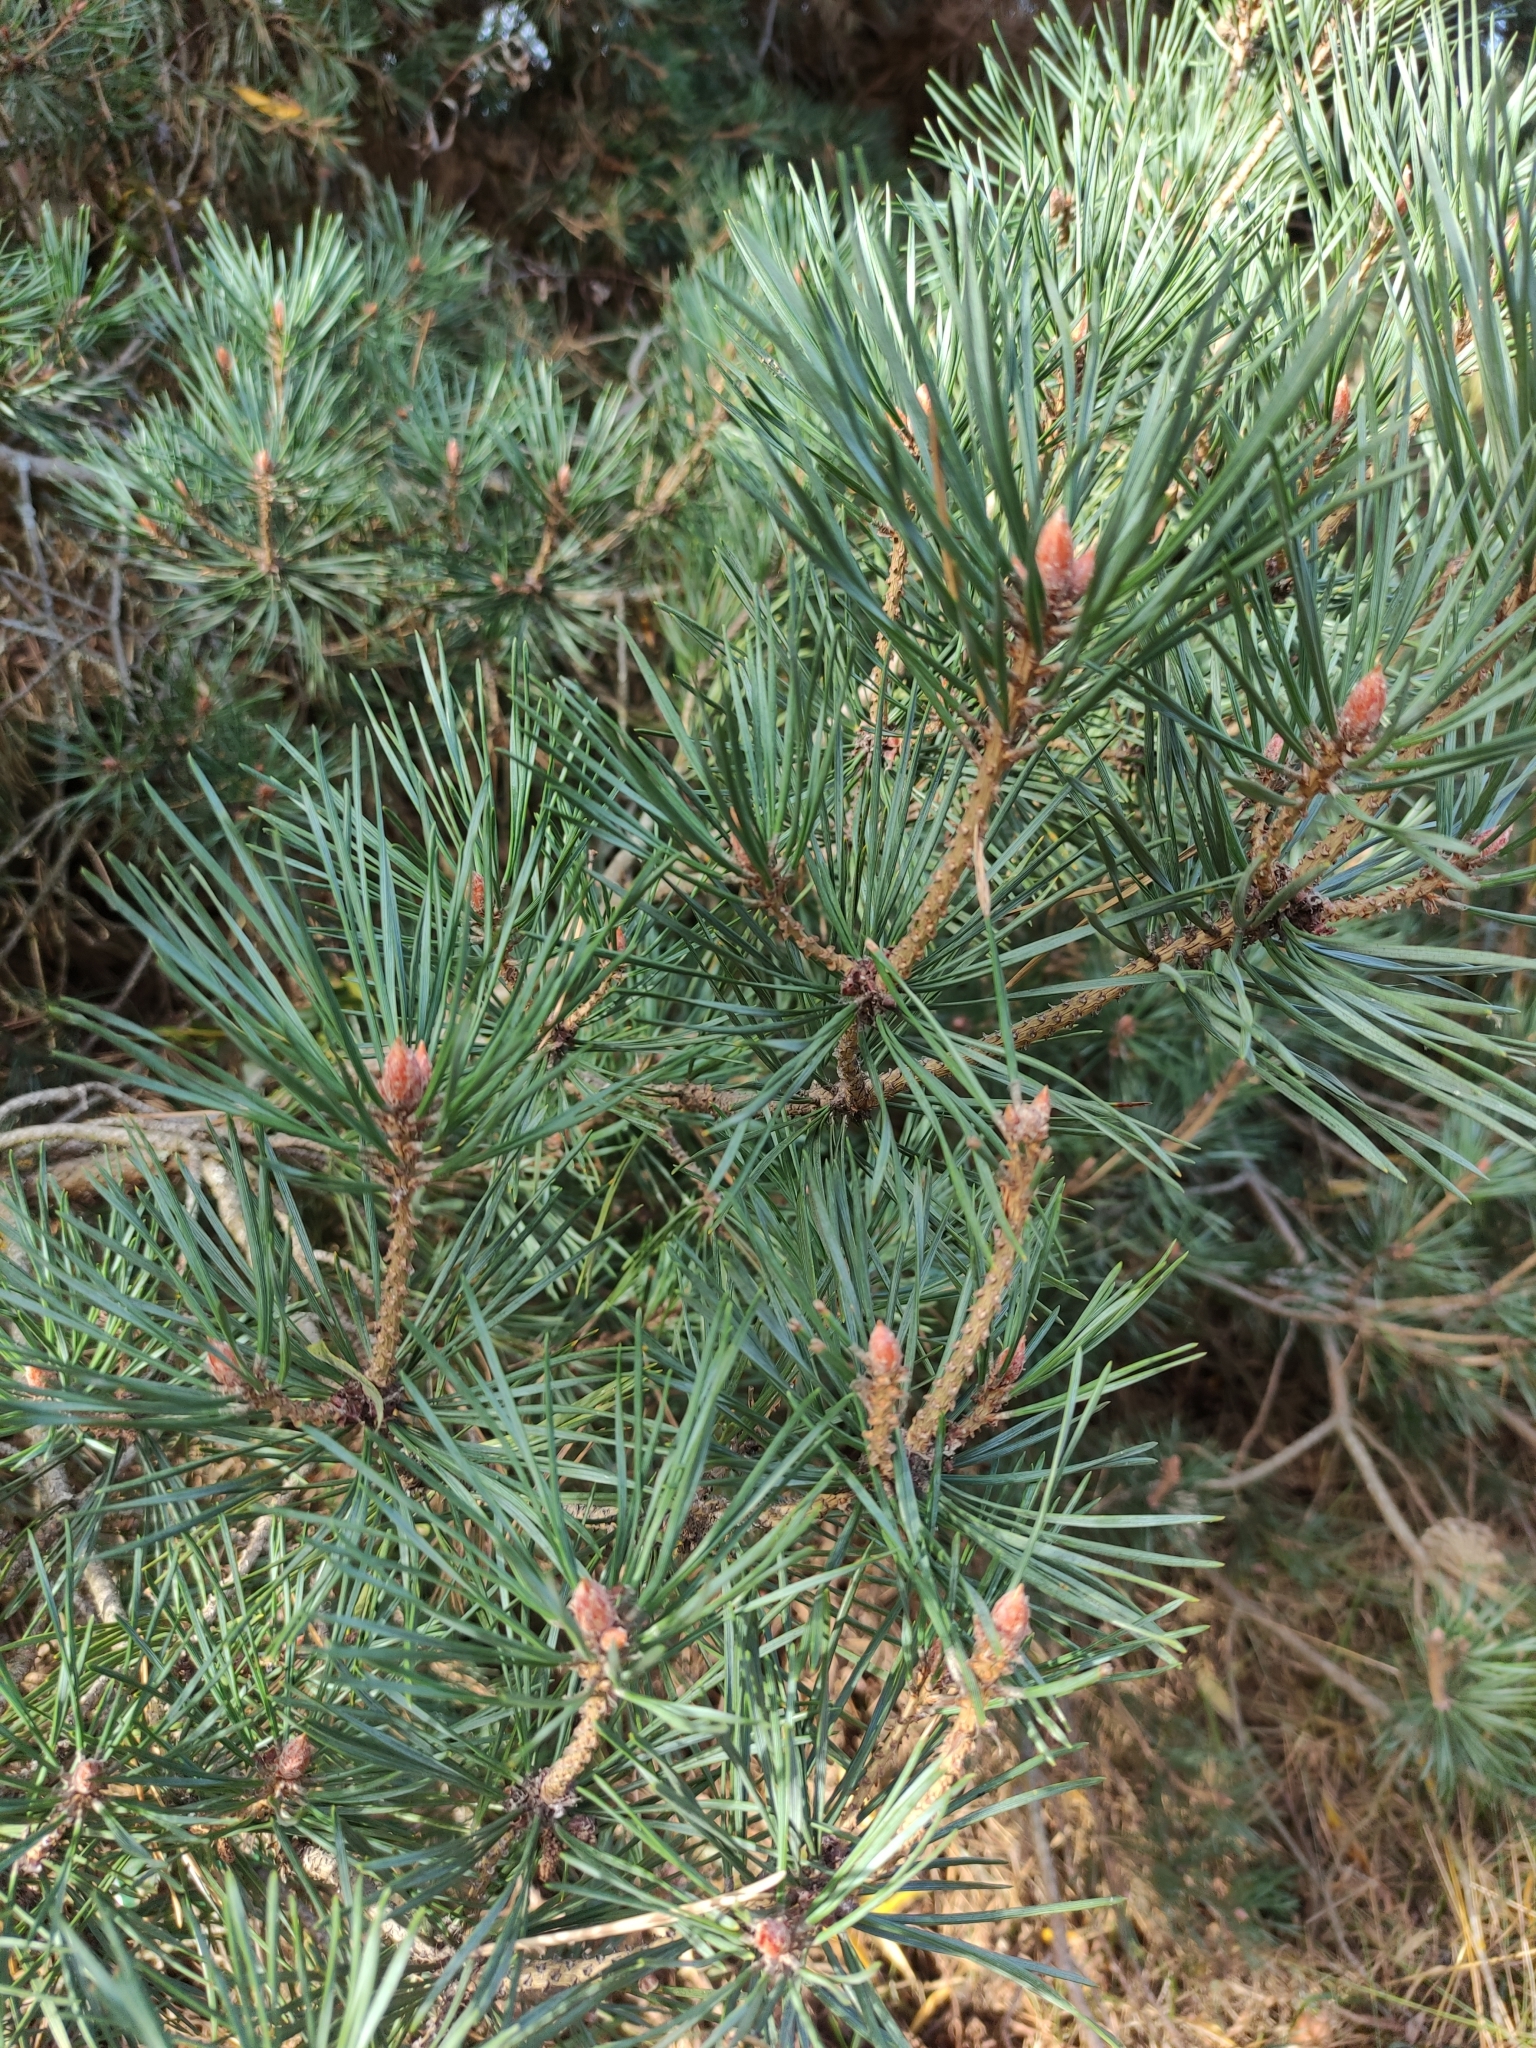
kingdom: Plantae
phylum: Tracheophyta
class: Pinopsida
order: Pinales
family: Pinaceae
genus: Pinus
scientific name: Pinus sylvestris
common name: Scots pine
